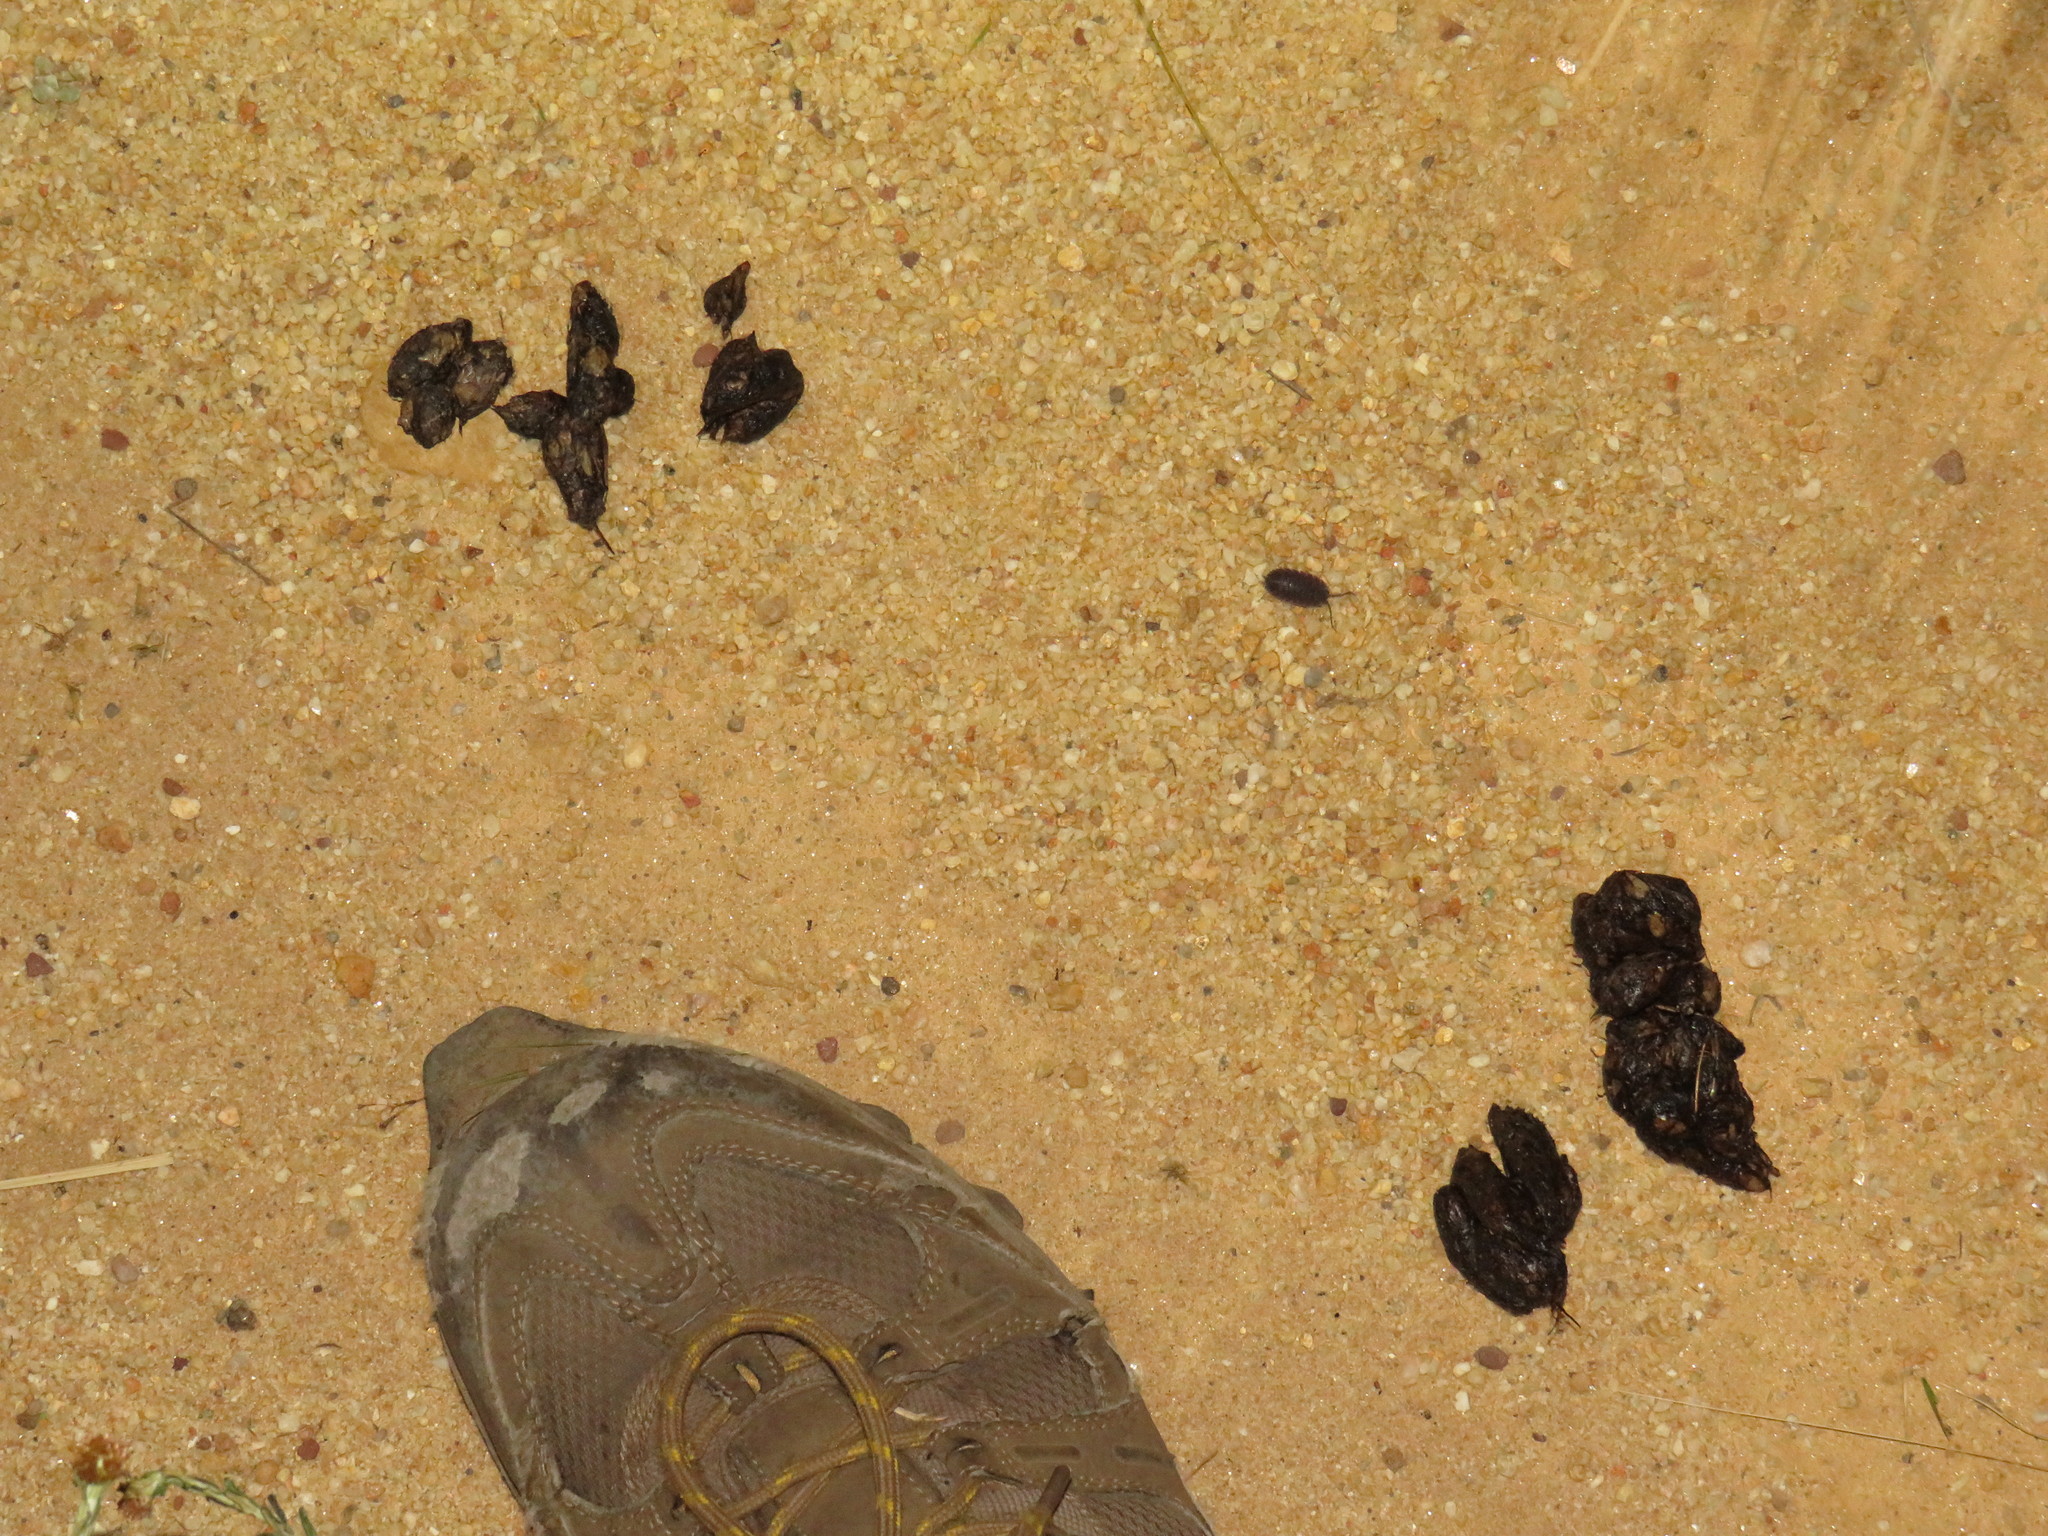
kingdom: Animalia
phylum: Chordata
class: Mammalia
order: Rodentia
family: Hystricidae
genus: Hystrix
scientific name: Hystrix africaeaustralis
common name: Cape porcupine
